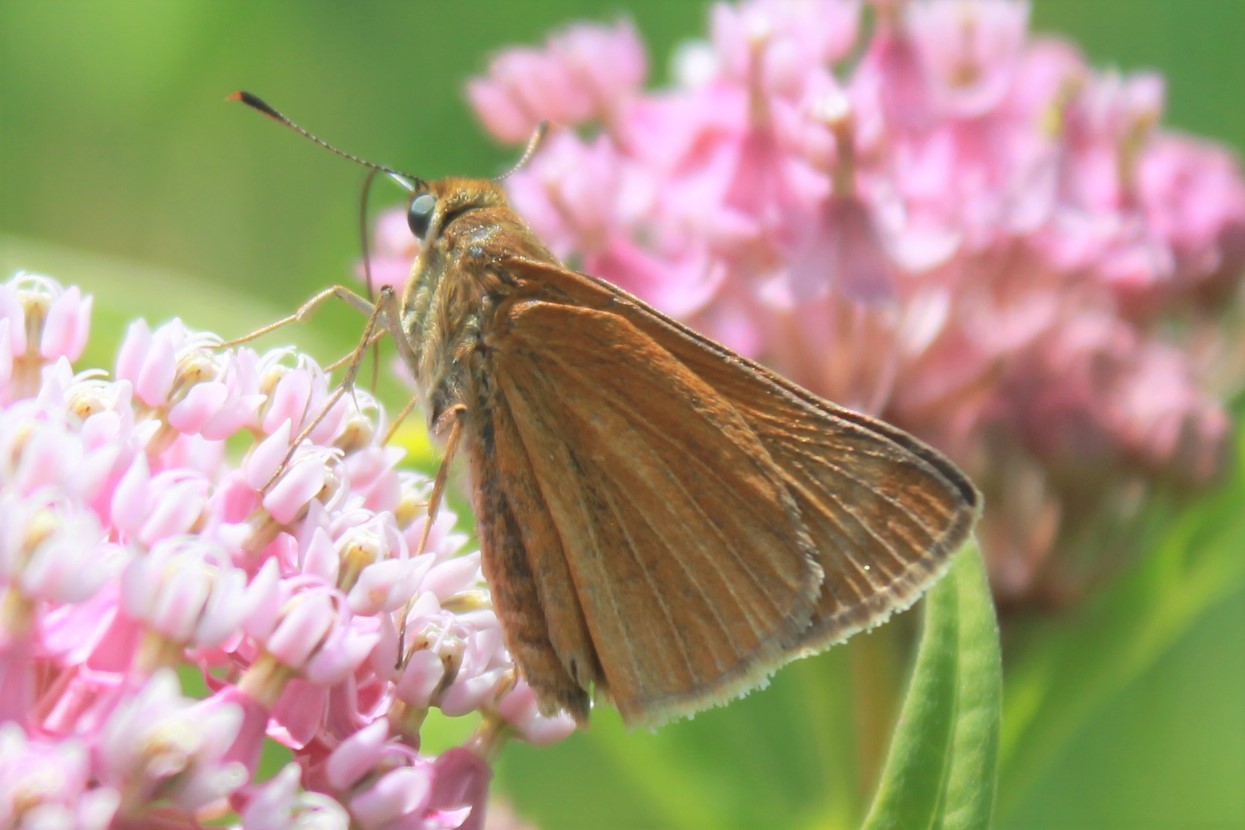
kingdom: Animalia
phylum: Arthropoda
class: Insecta
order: Lepidoptera
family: Hesperiidae
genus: Euphyes
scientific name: Euphyes dion
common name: Dion skipper
